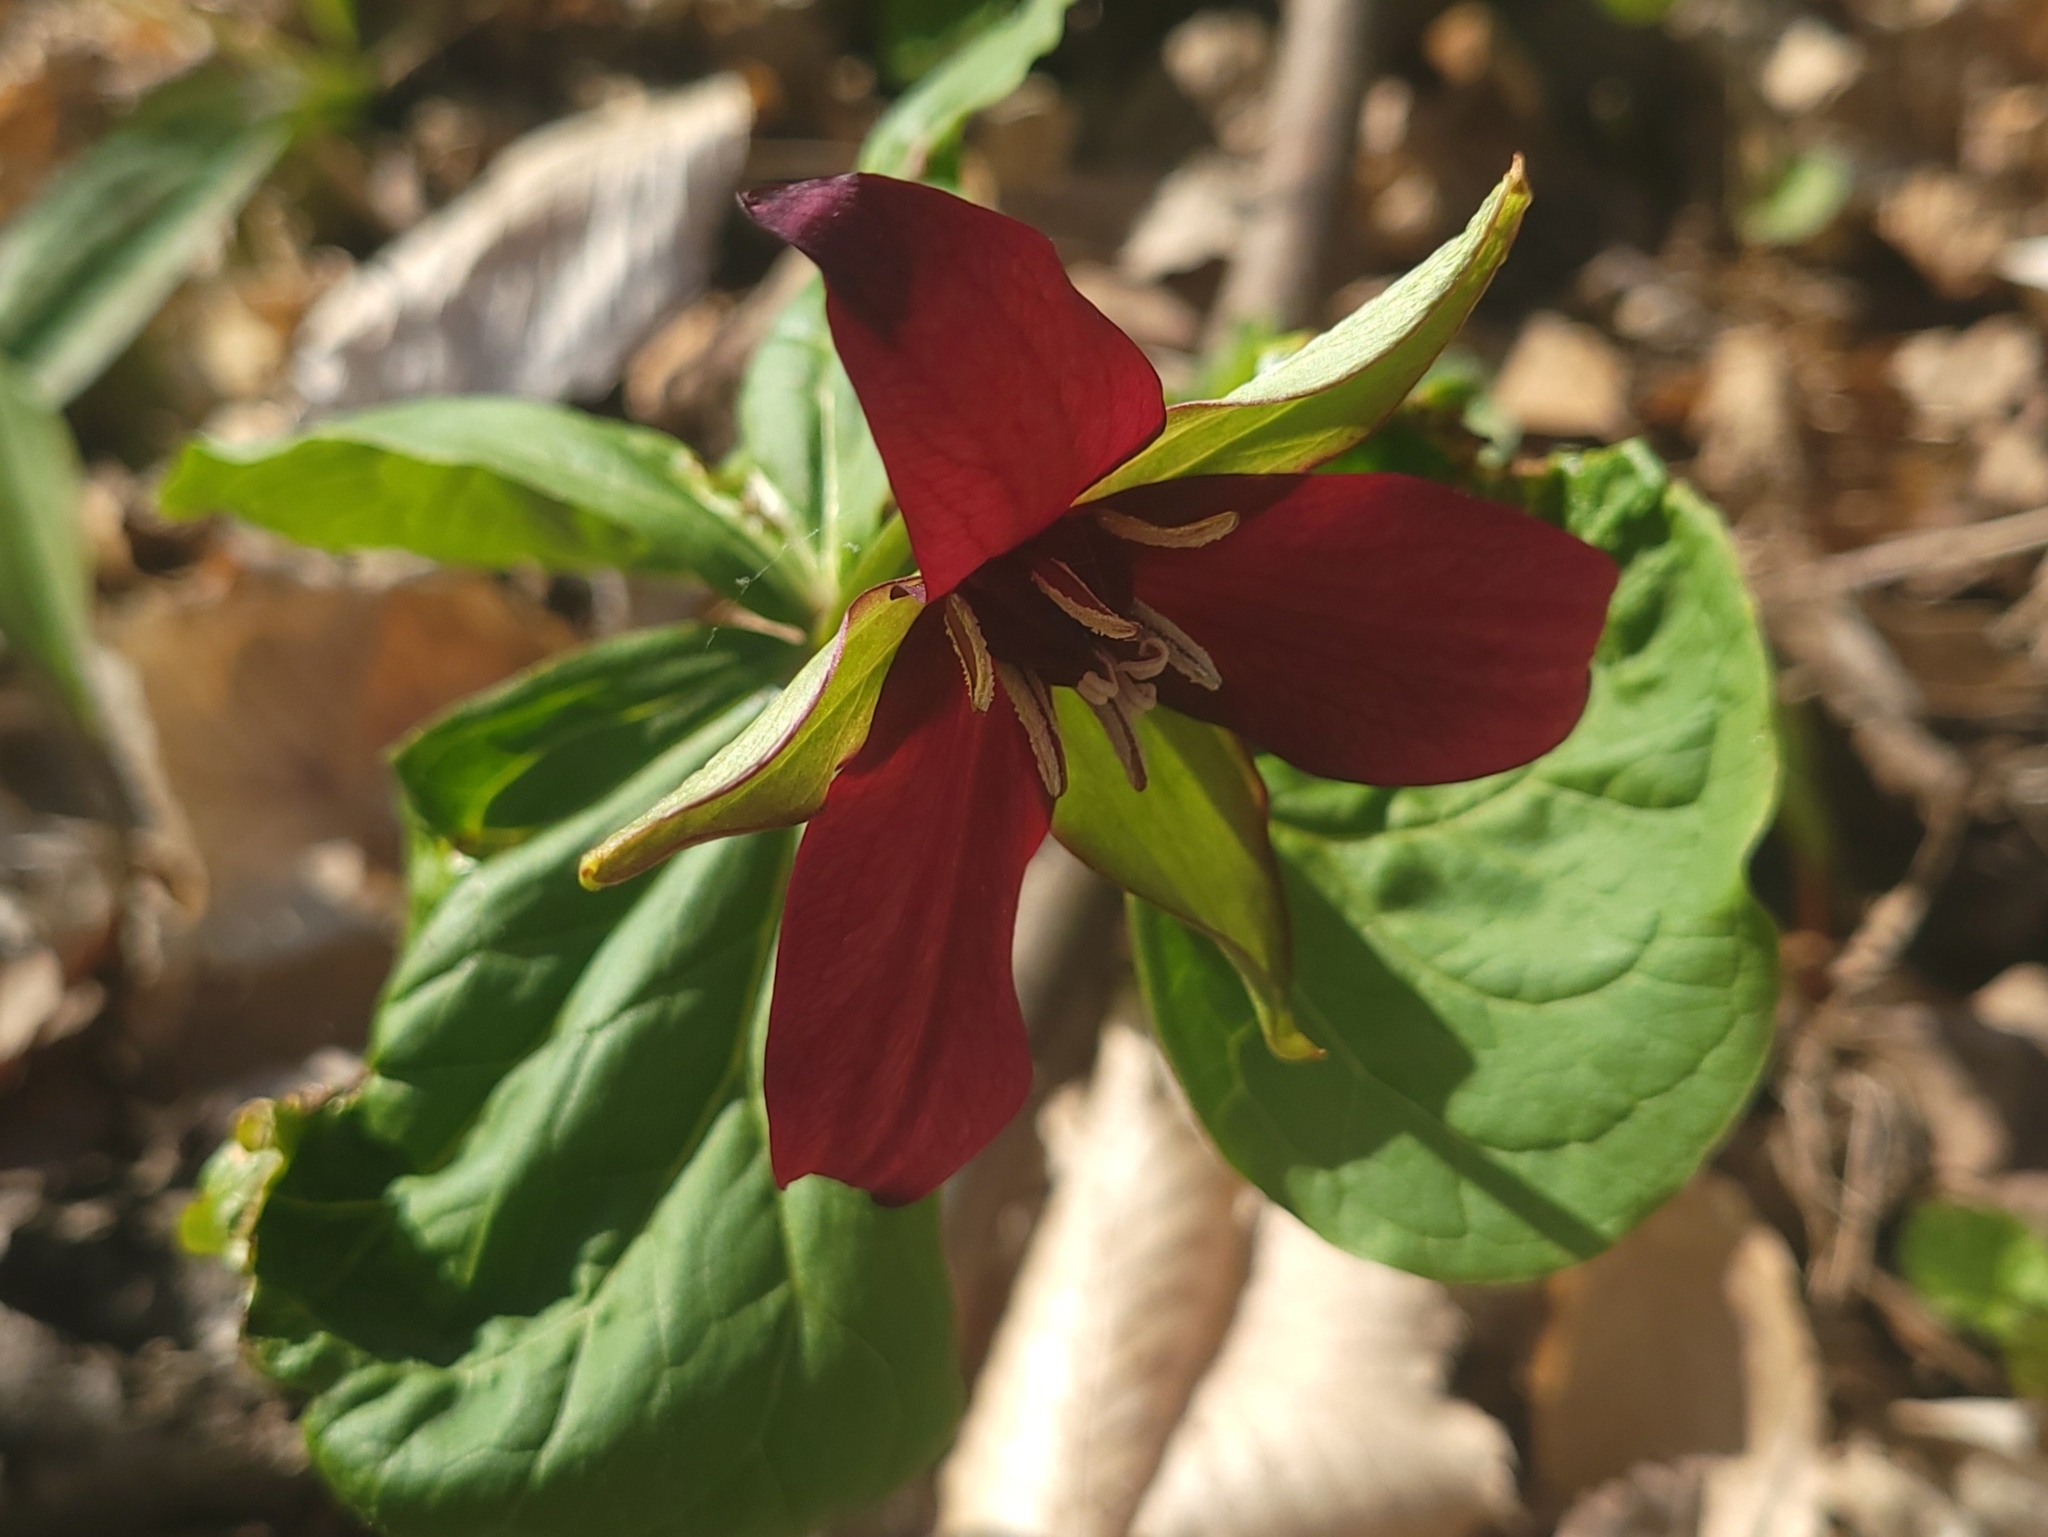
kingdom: Plantae
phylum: Tracheophyta
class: Liliopsida
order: Liliales
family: Melanthiaceae
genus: Trillium
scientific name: Trillium erectum
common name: Purple trillium
